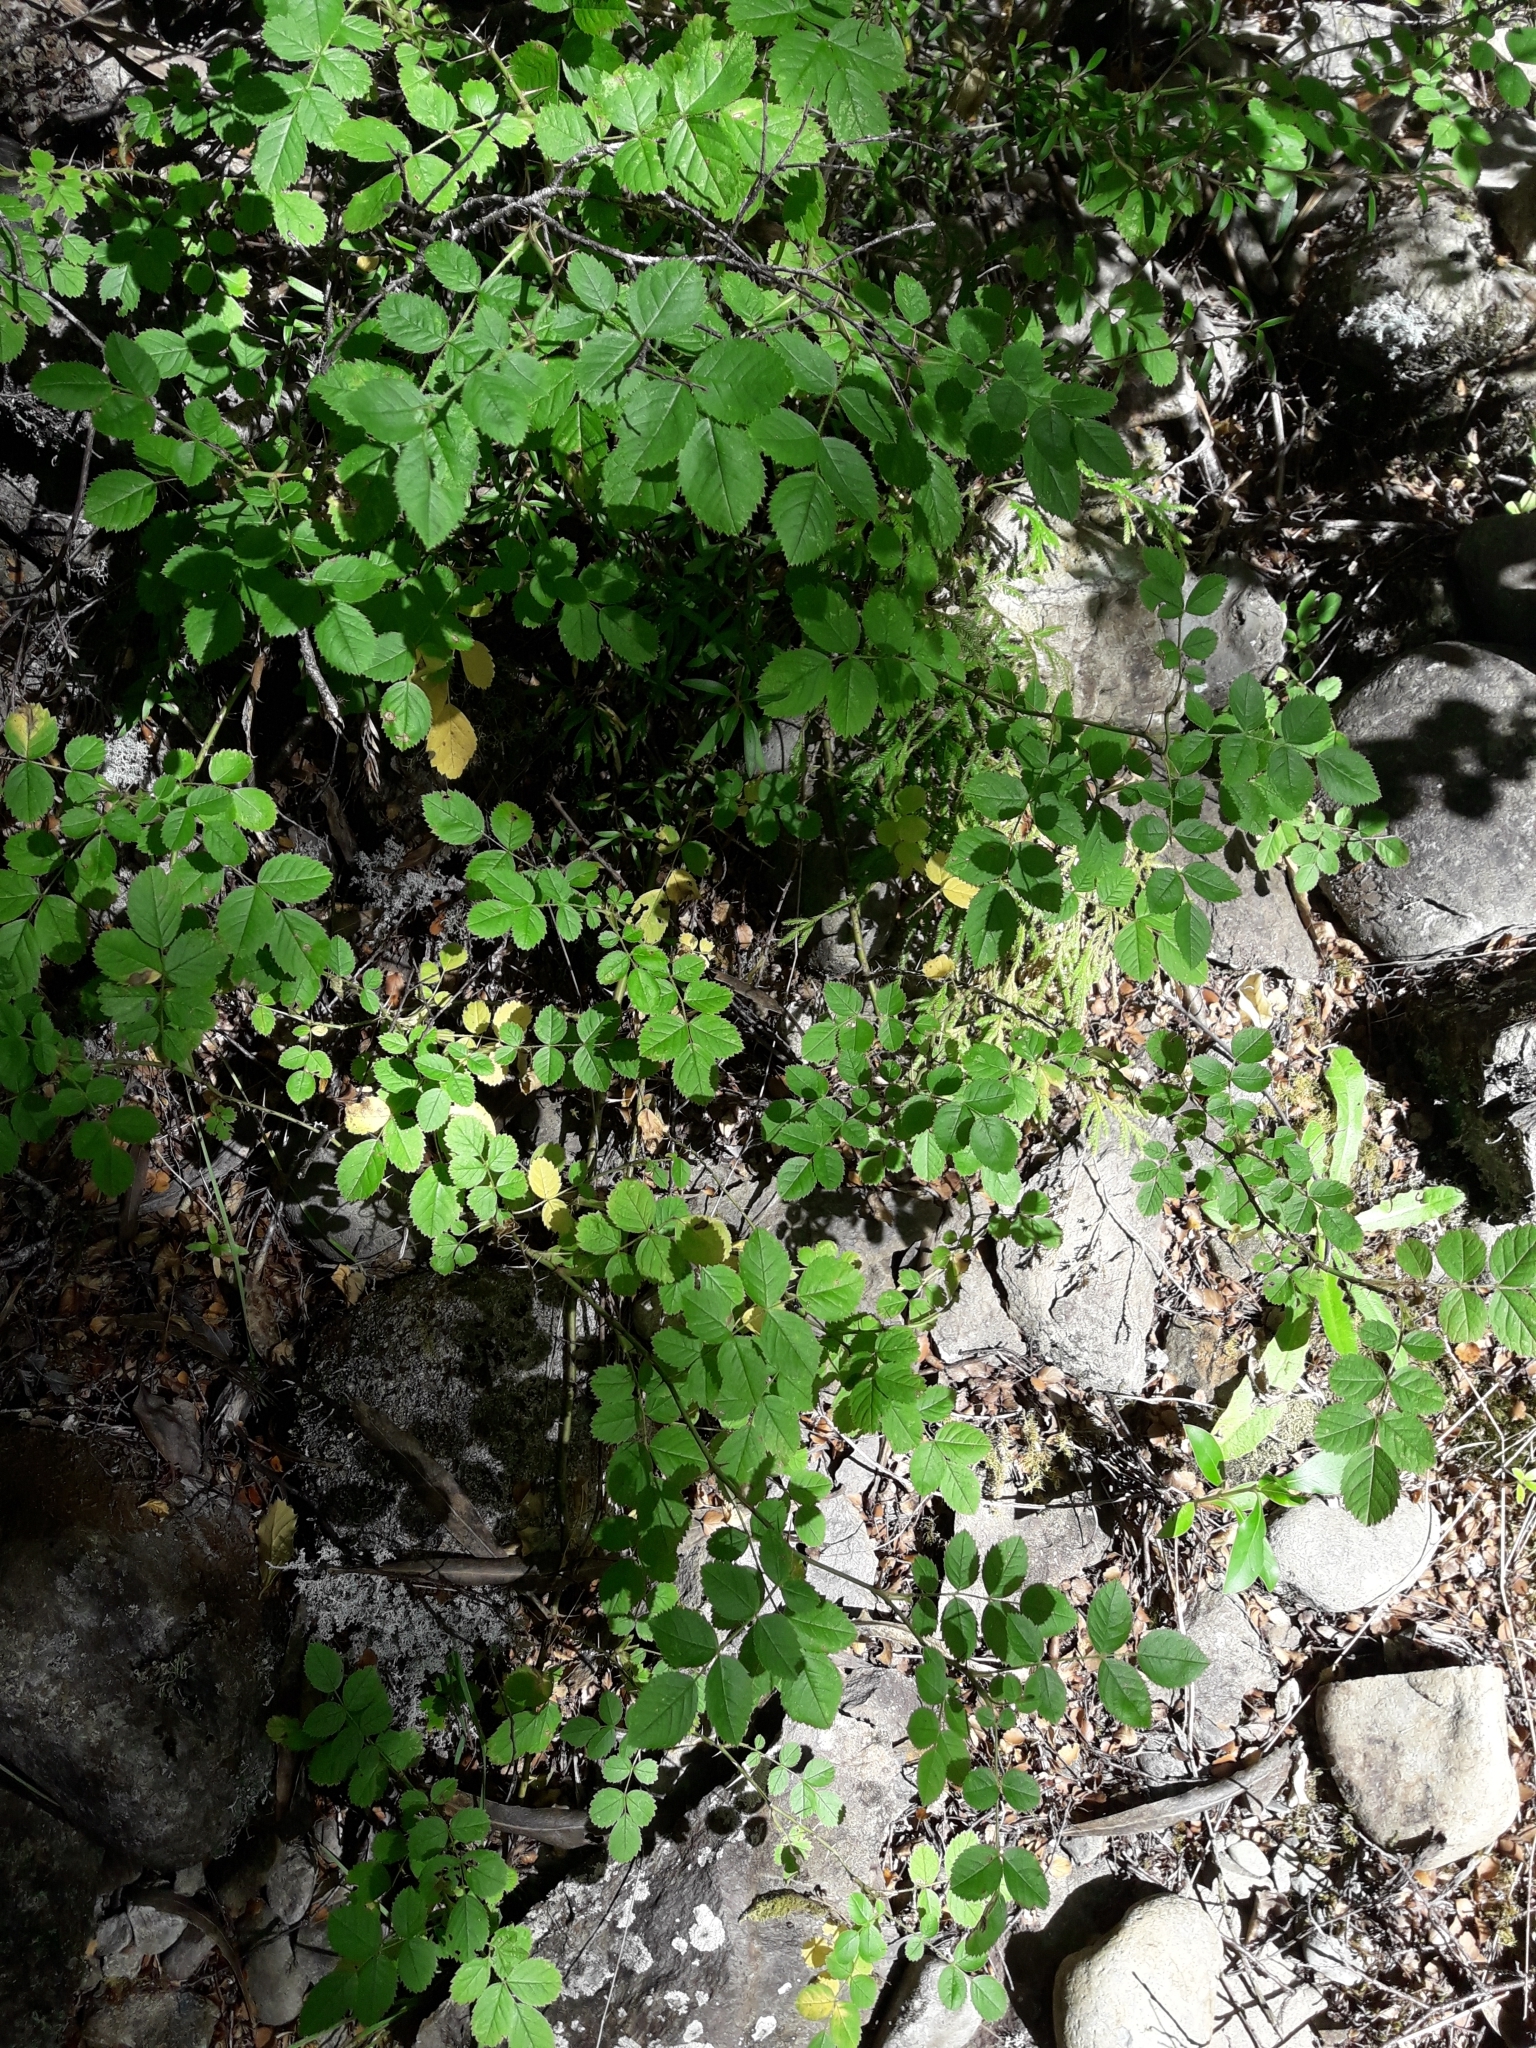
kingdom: Plantae
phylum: Tracheophyta
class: Magnoliopsida
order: Rosales
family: Rosaceae
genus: Rosa
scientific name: Rosa rubiginosa
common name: Sweet-briar
